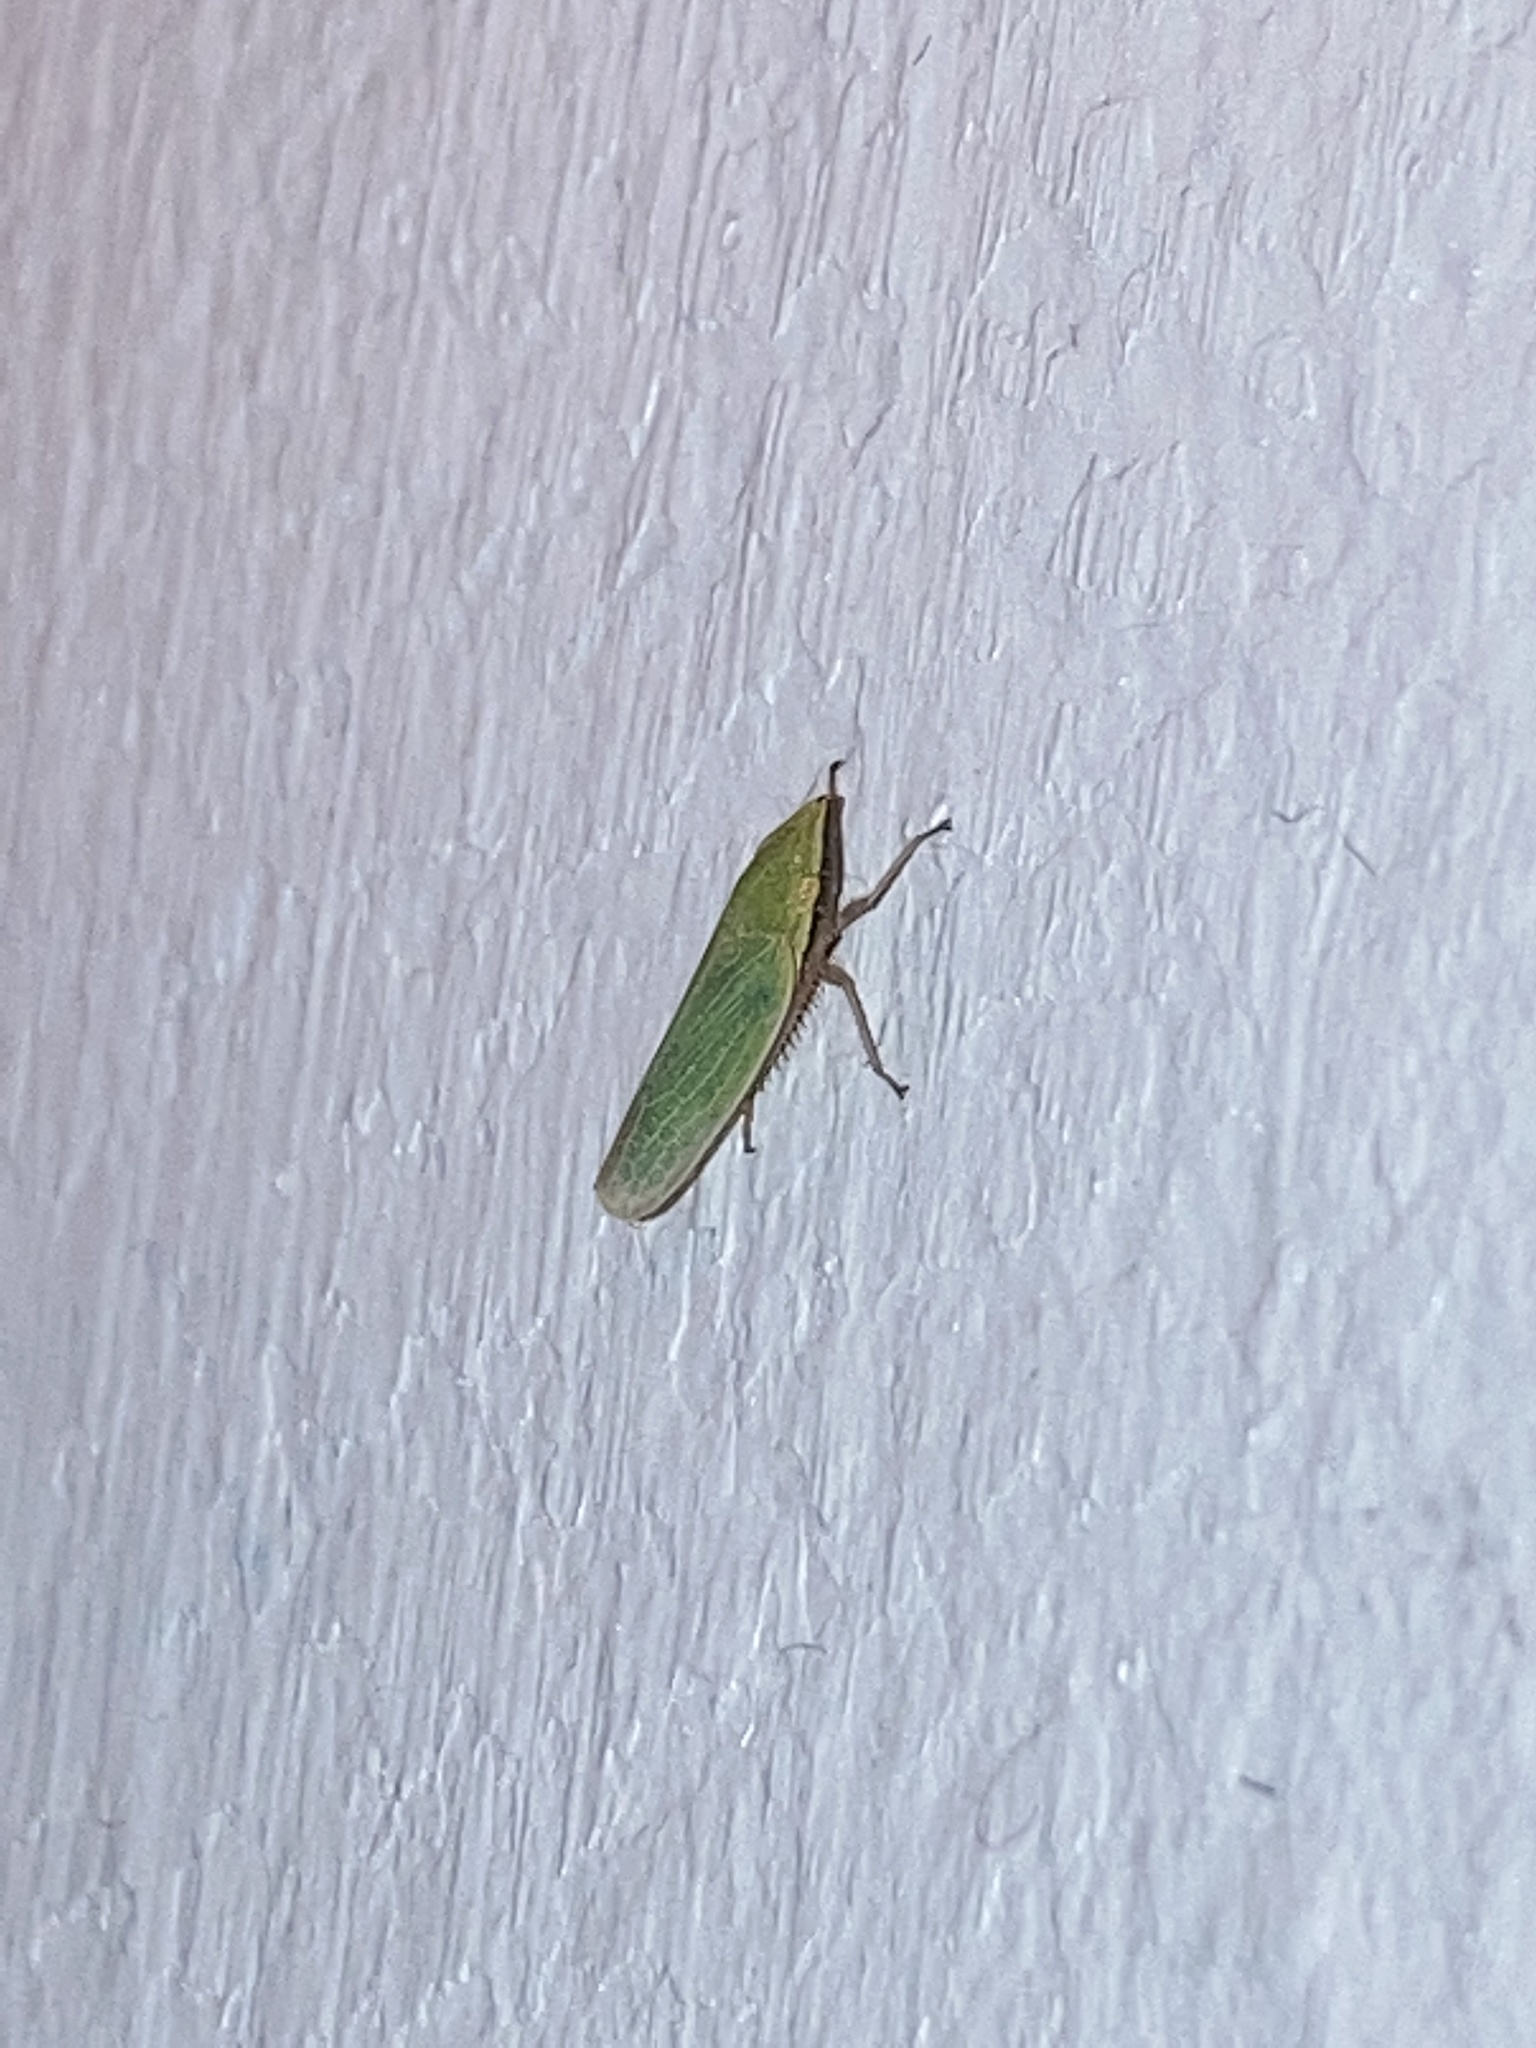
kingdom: Animalia
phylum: Arthropoda
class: Insecta
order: Hemiptera
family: Cicadellidae
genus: Draeculacephala
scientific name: Draeculacephala antica
